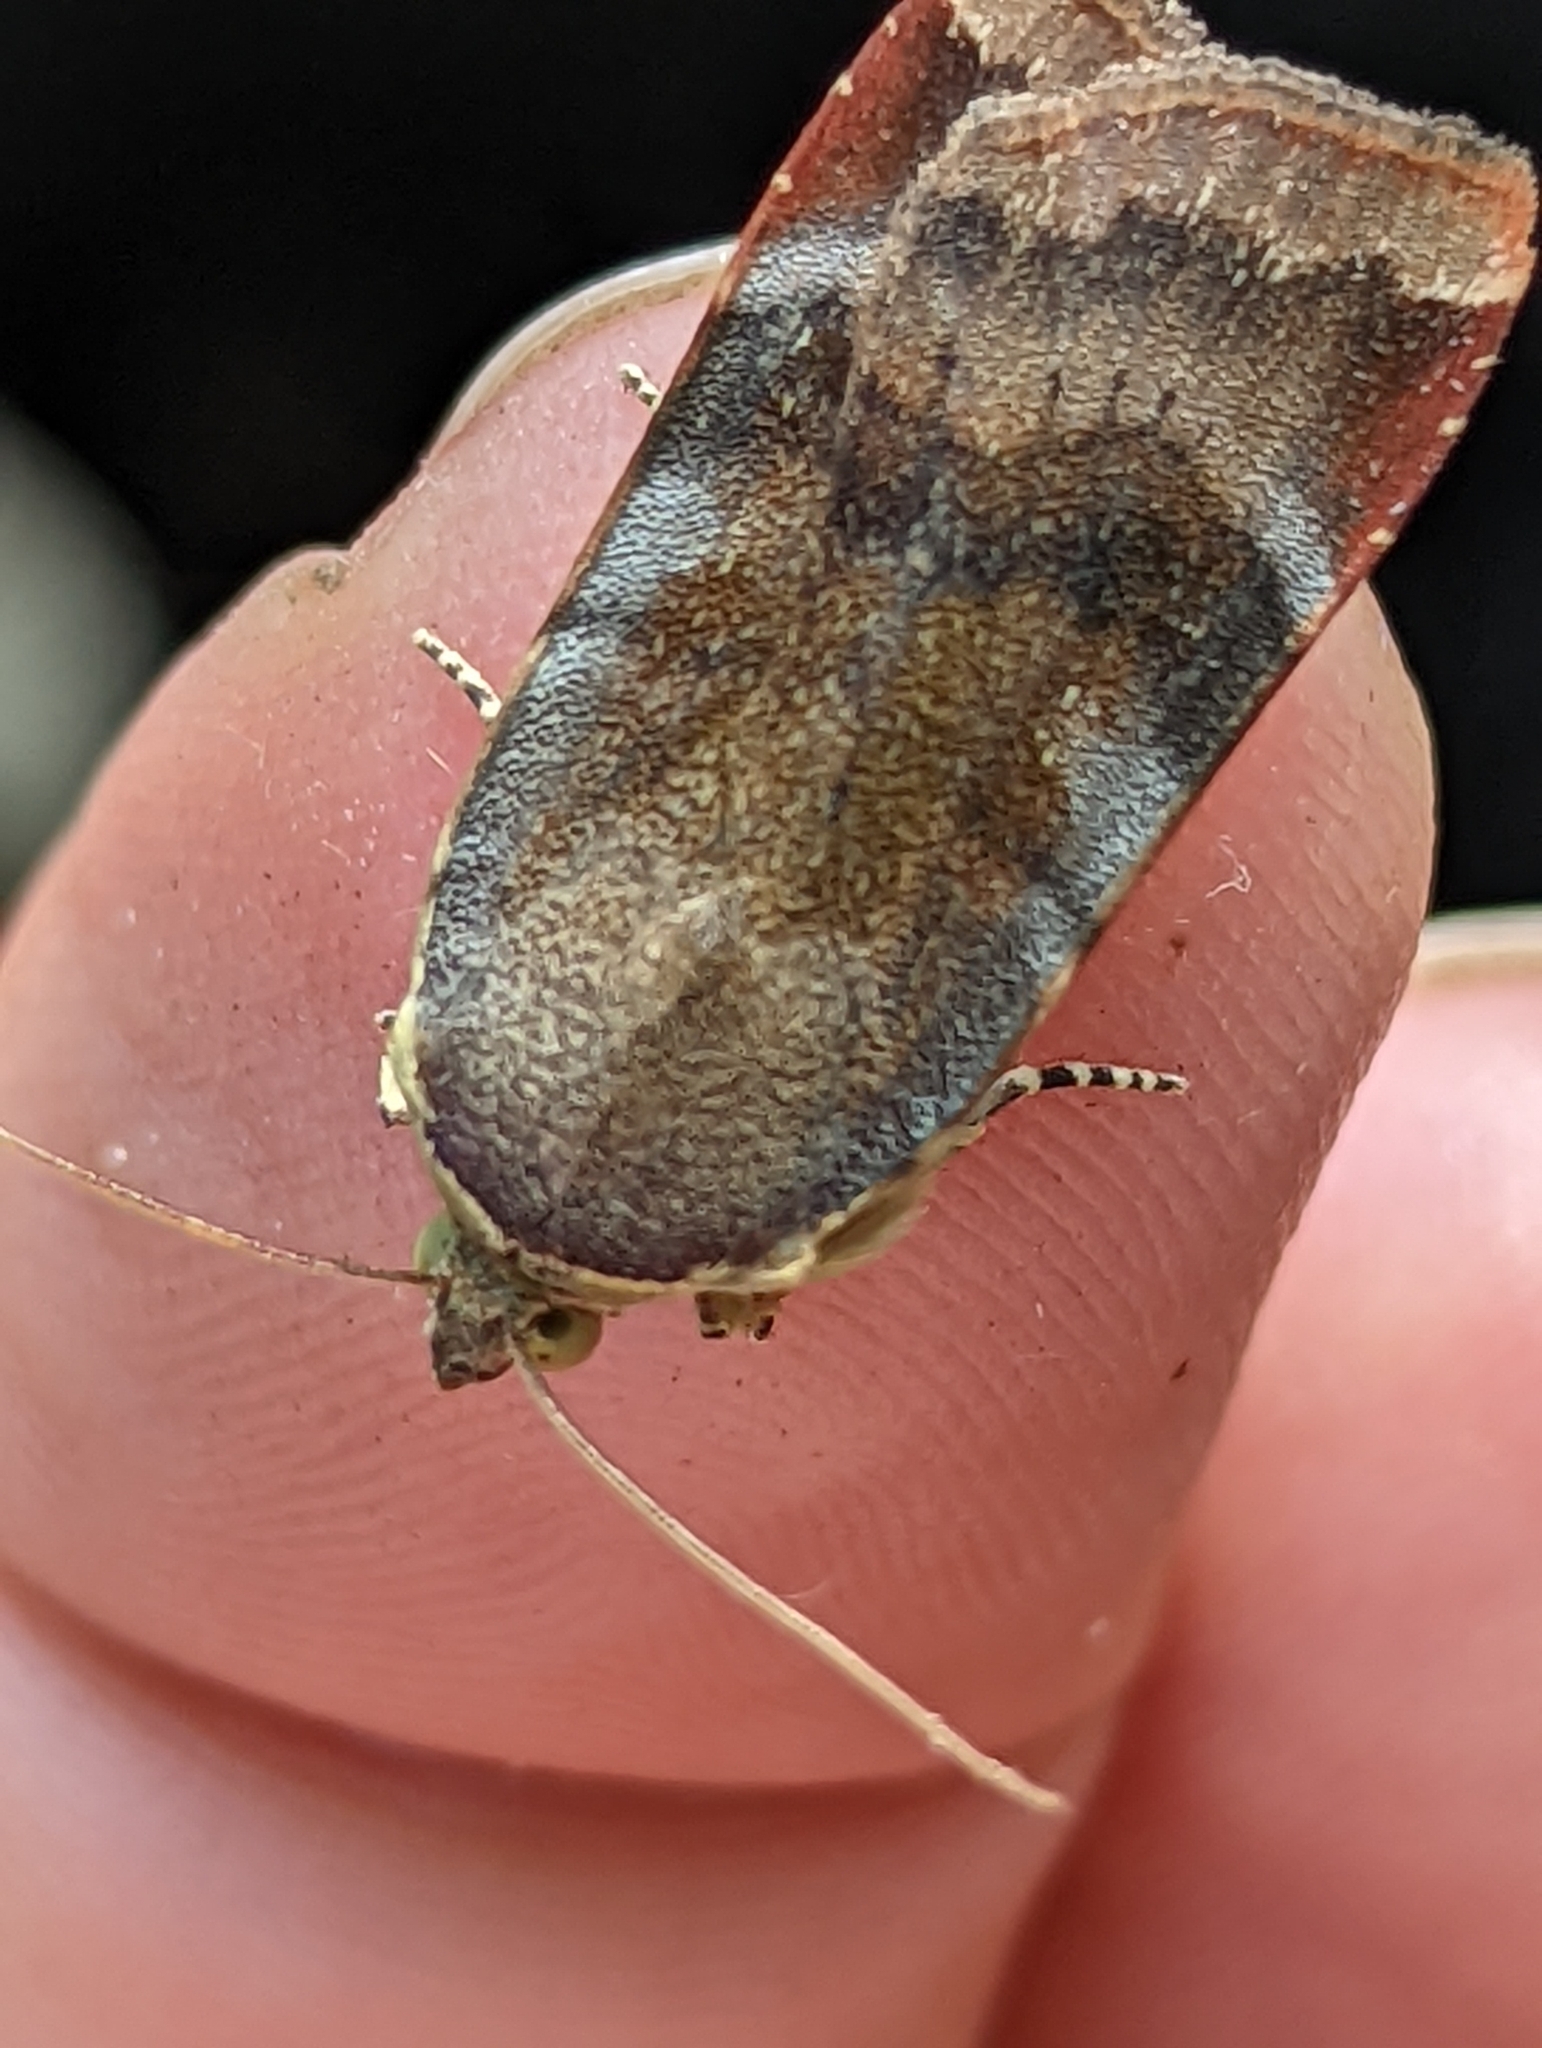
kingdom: Animalia
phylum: Arthropoda
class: Insecta
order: Lepidoptera
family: Noctuidae
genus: Noctua
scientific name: Noctua janthe
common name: Lesser broad-bordered yellow underwing
